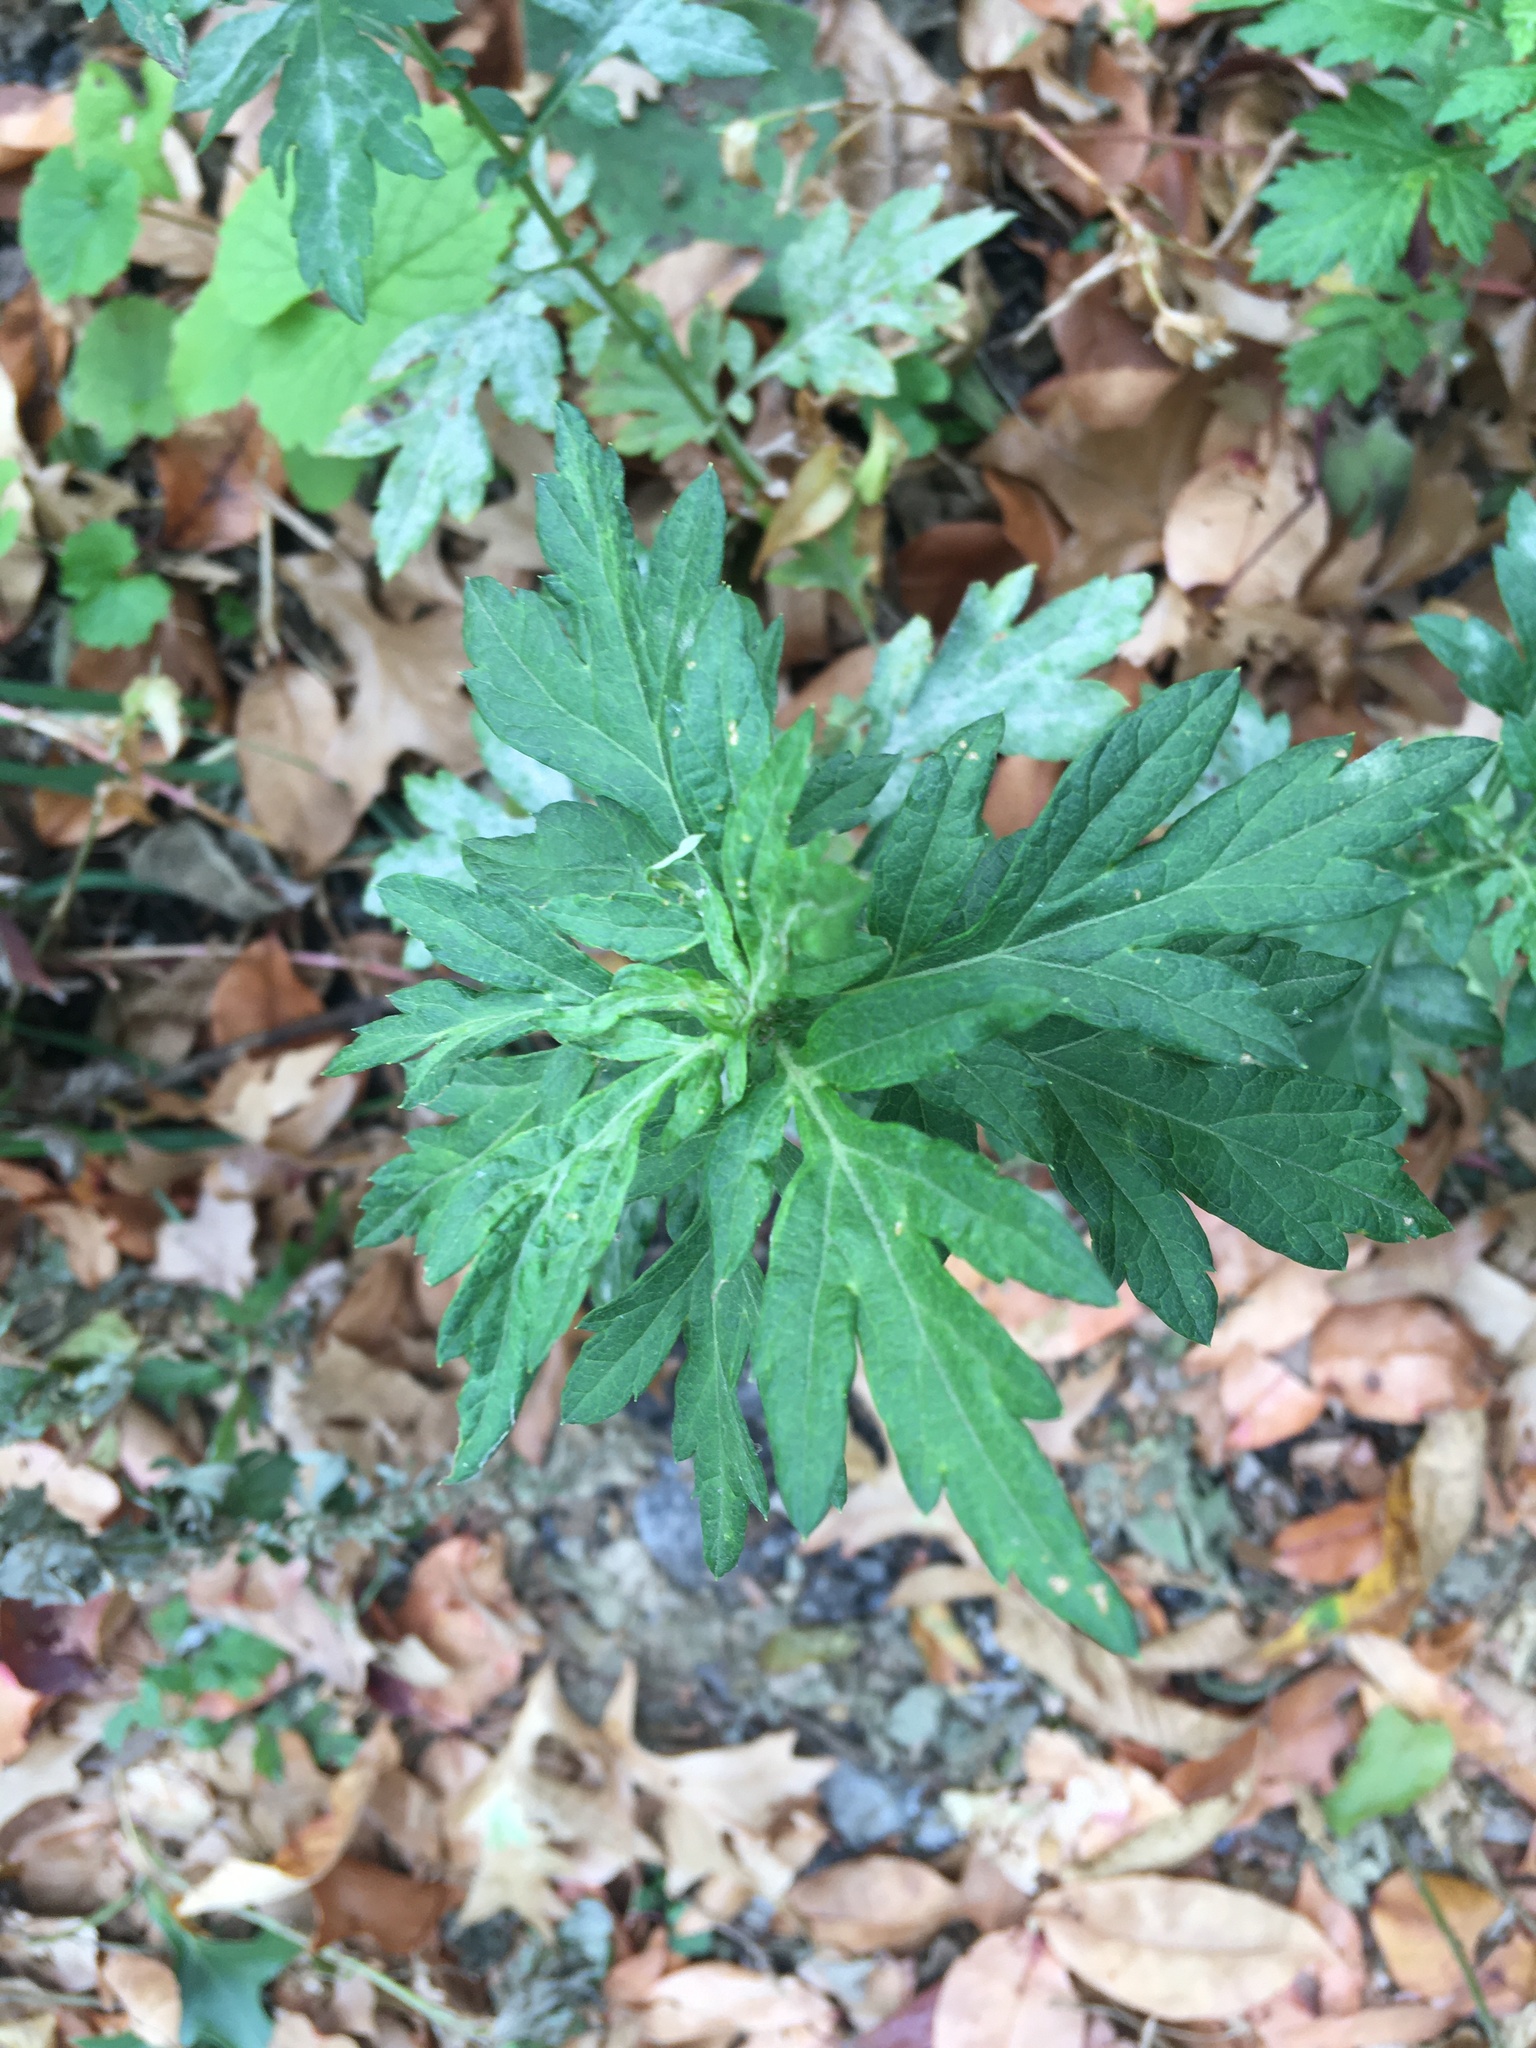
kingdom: Plantae
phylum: Tracheophyta
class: Magnoliopsida
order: Asterales
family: Asteraceae
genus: Artemisia
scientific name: Artemisia vulgaris
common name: Mugwort
